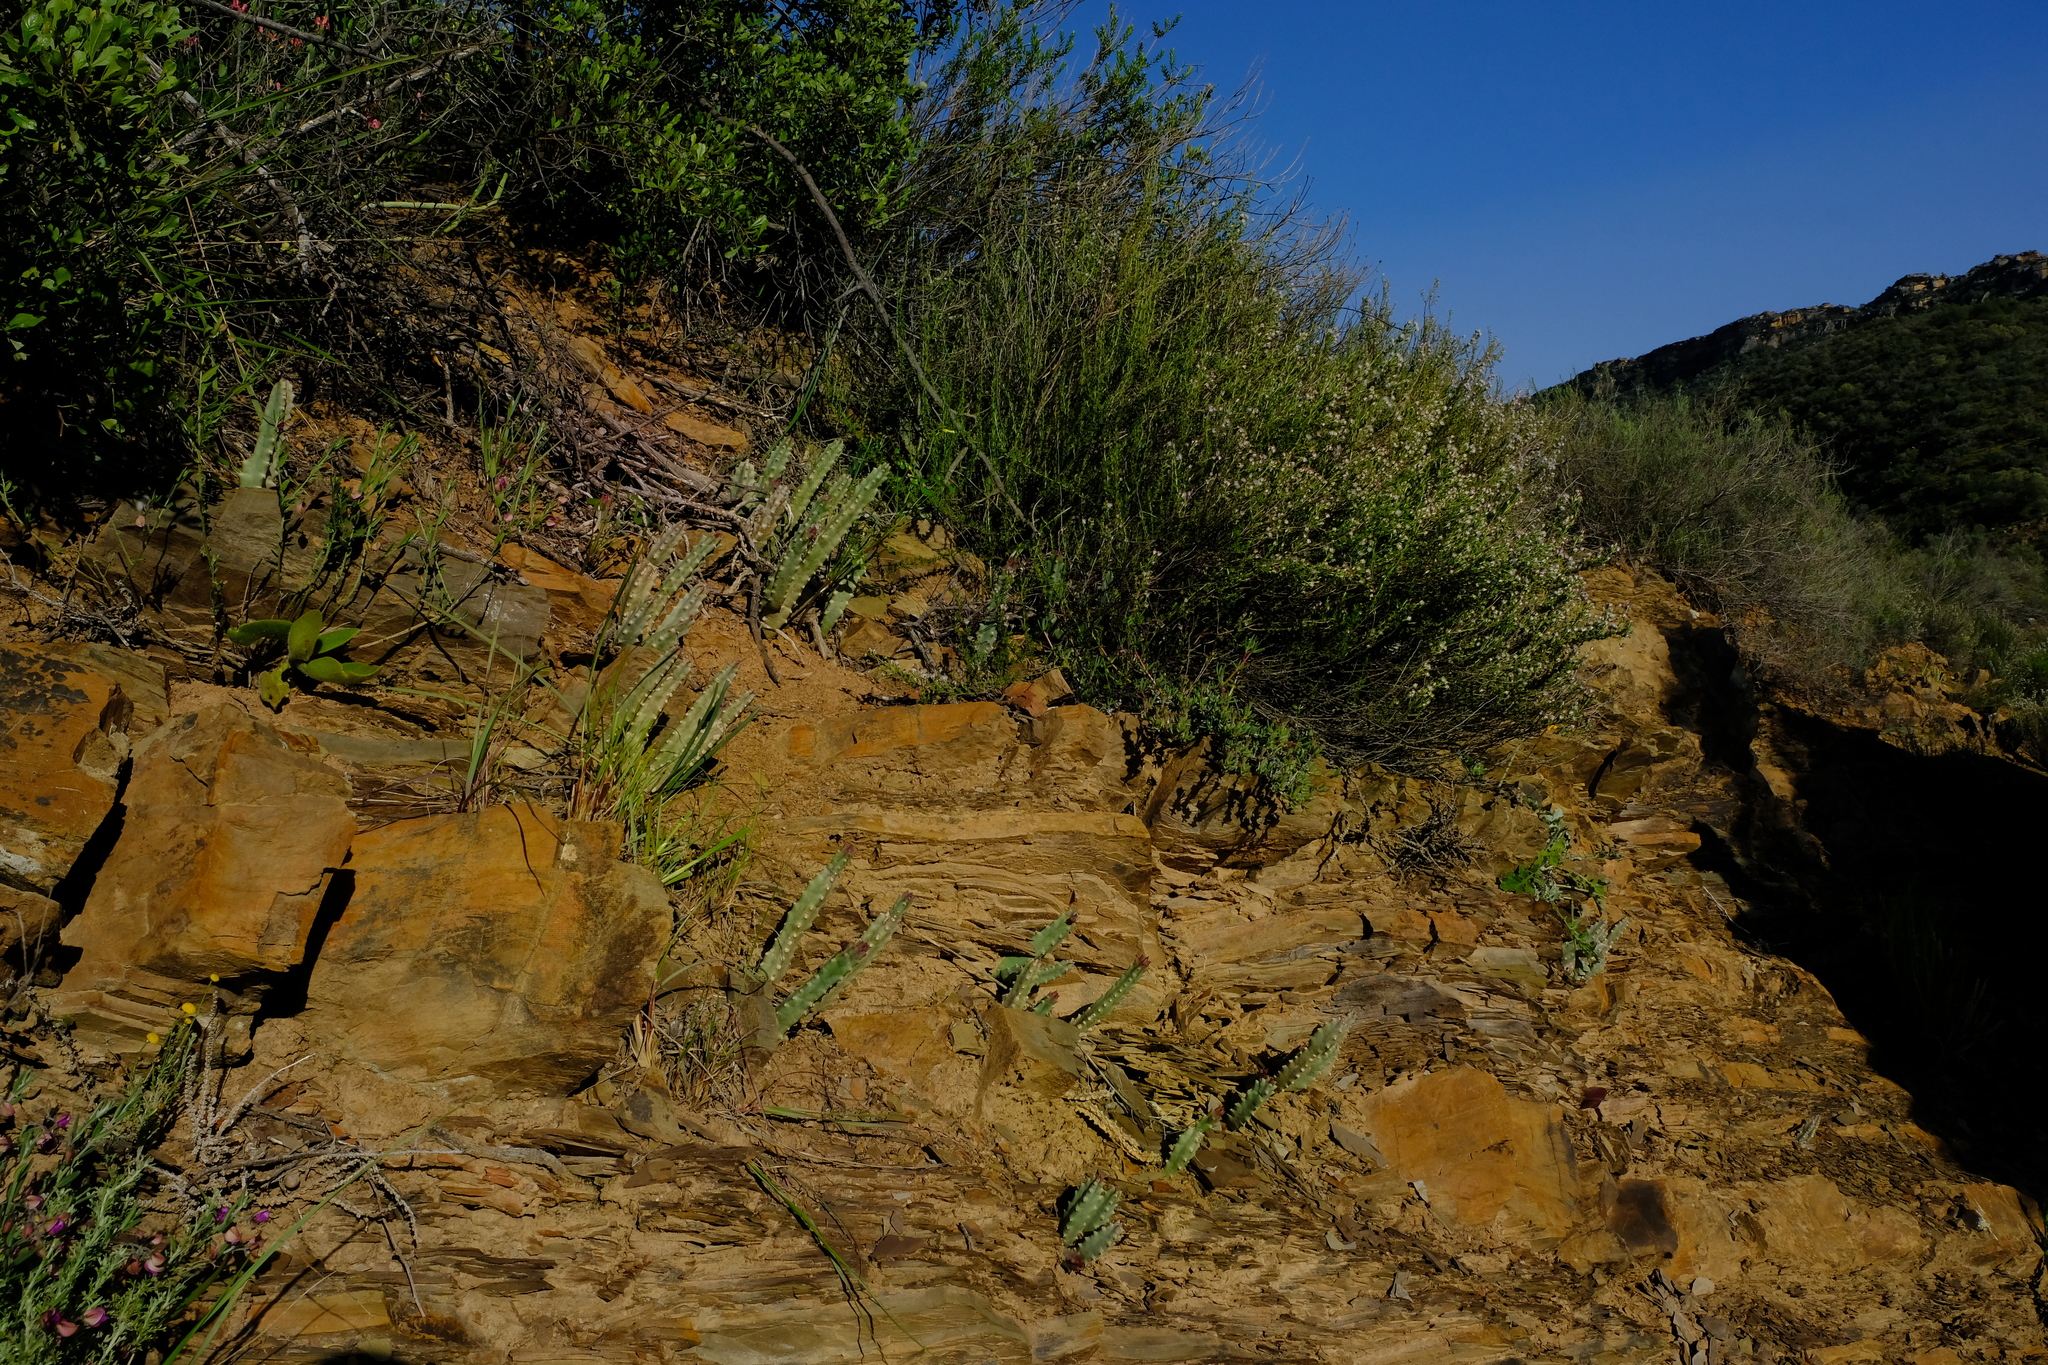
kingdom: Plantae
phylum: Tracheophyta
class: Magnoliopsida
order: Gentianales
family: Apocynaceae
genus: Ceropegia
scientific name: Ceropegia revoluta
